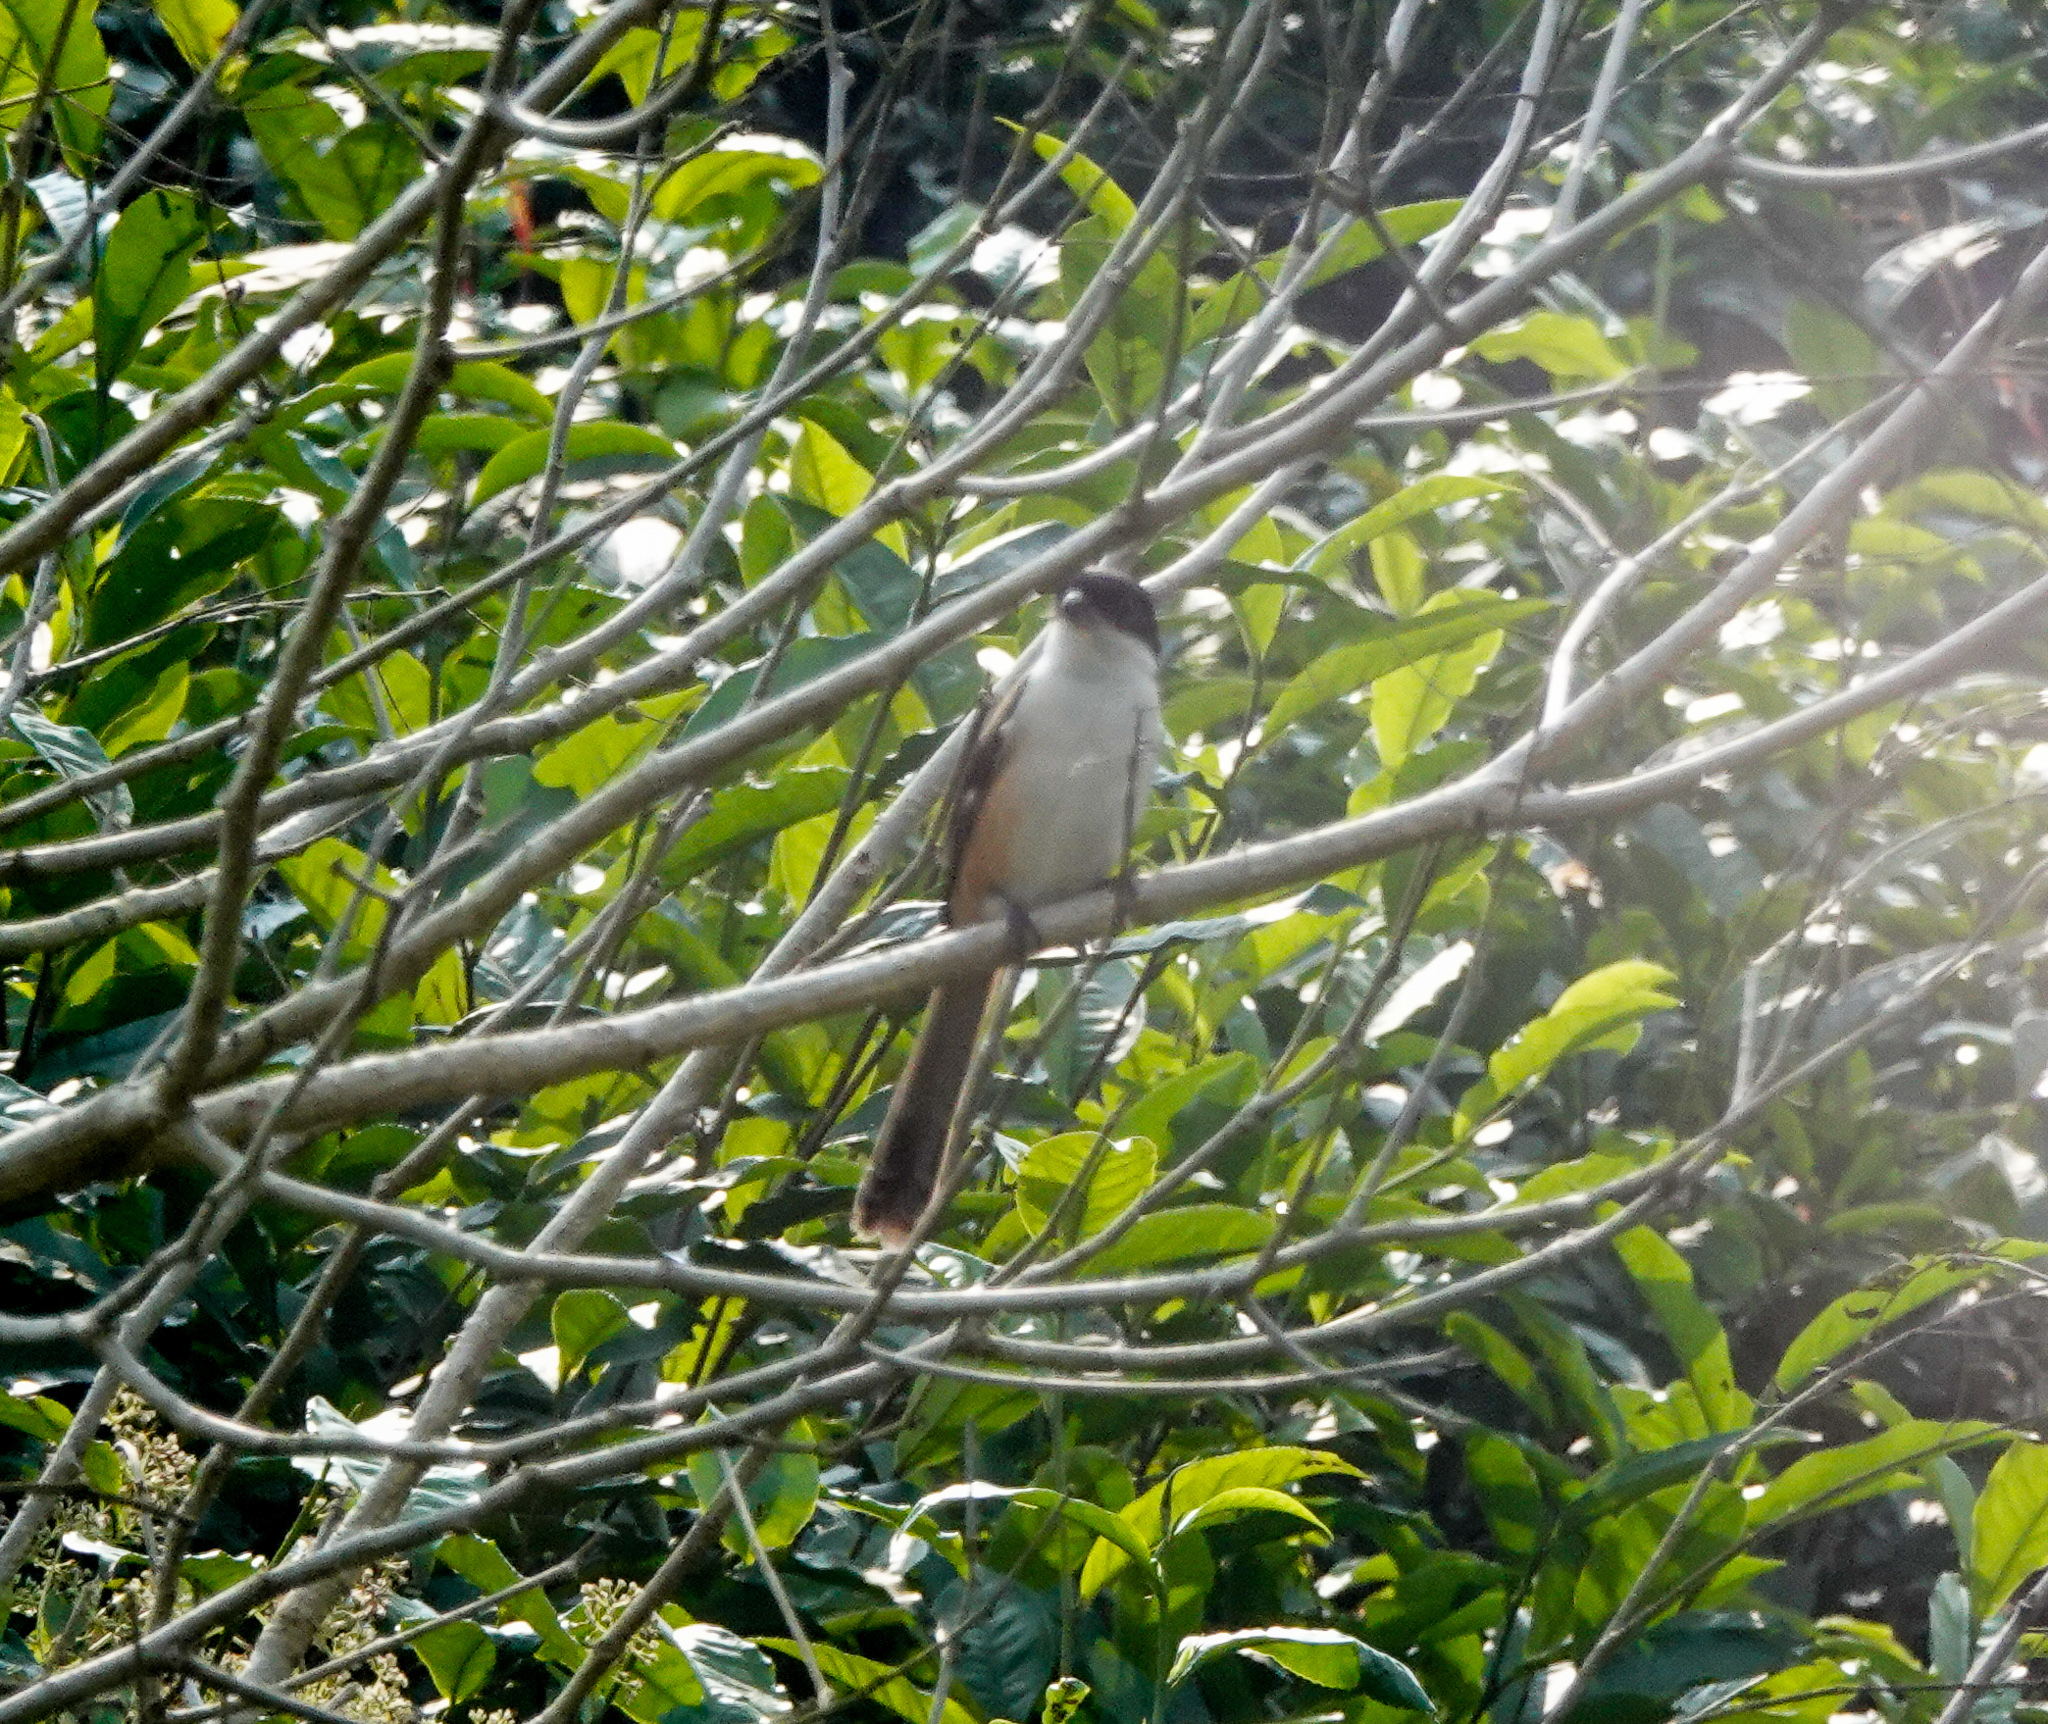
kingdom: Animalia
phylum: Chordata
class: Aves
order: Passeriformes
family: Laniidae
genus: Lanius
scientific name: Lanius schach
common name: Long-tailed shrike
